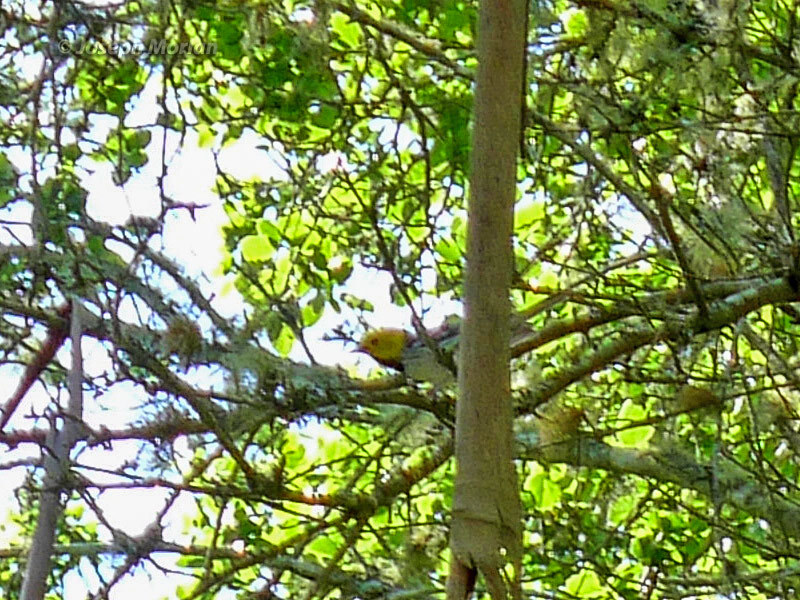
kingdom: Animalia
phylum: Chordata
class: Aves
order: Passeriformes
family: Parulidae
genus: Setophaga
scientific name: Setophaga occidentalis
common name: Hermit warbler
